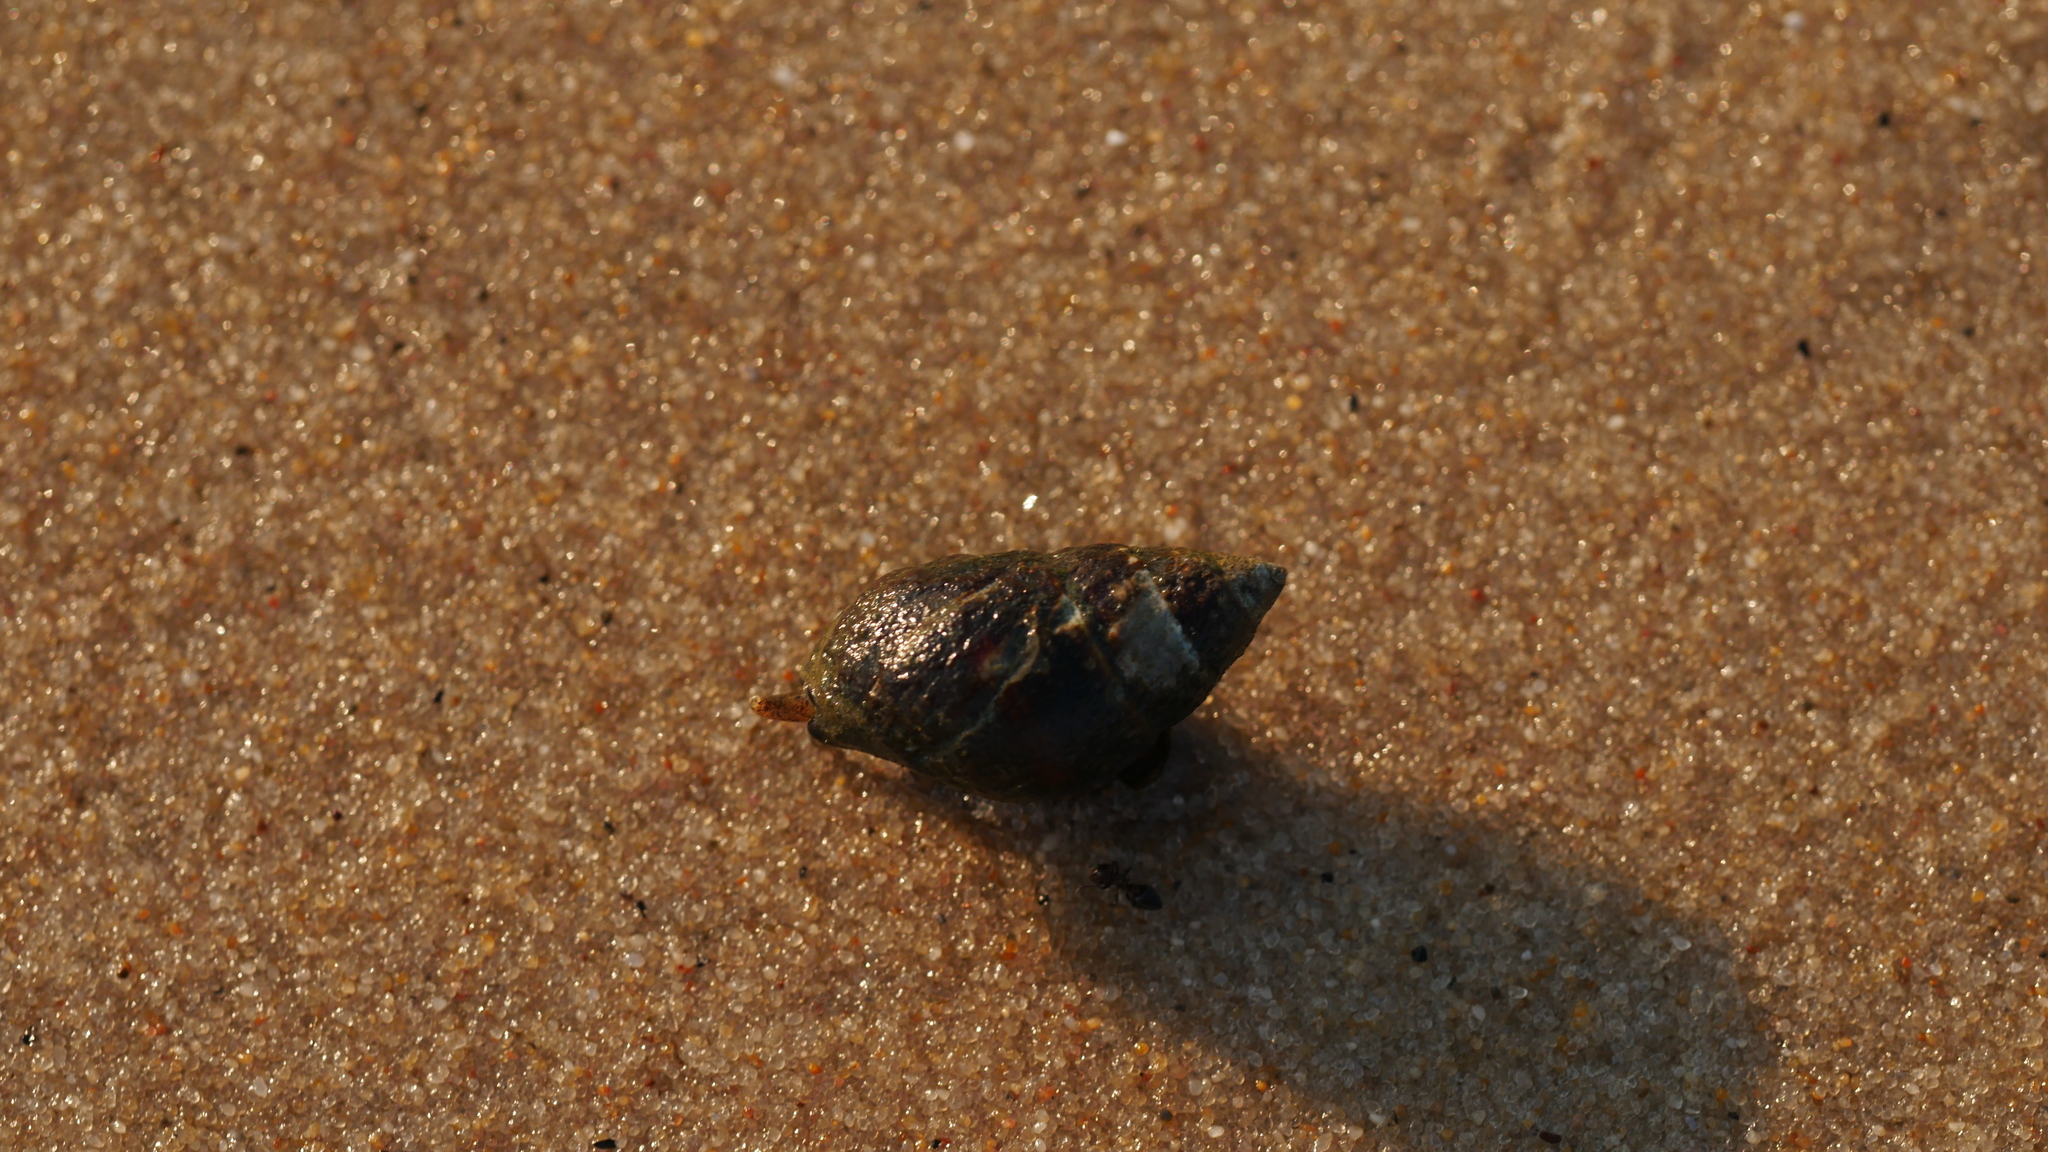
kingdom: Animalia
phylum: Mollusca
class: Gastropoda
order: Neogastropoda
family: Nassariidae
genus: Ilyanassa
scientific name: Ilyanassa obsoleta
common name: Eastern mudsnail
